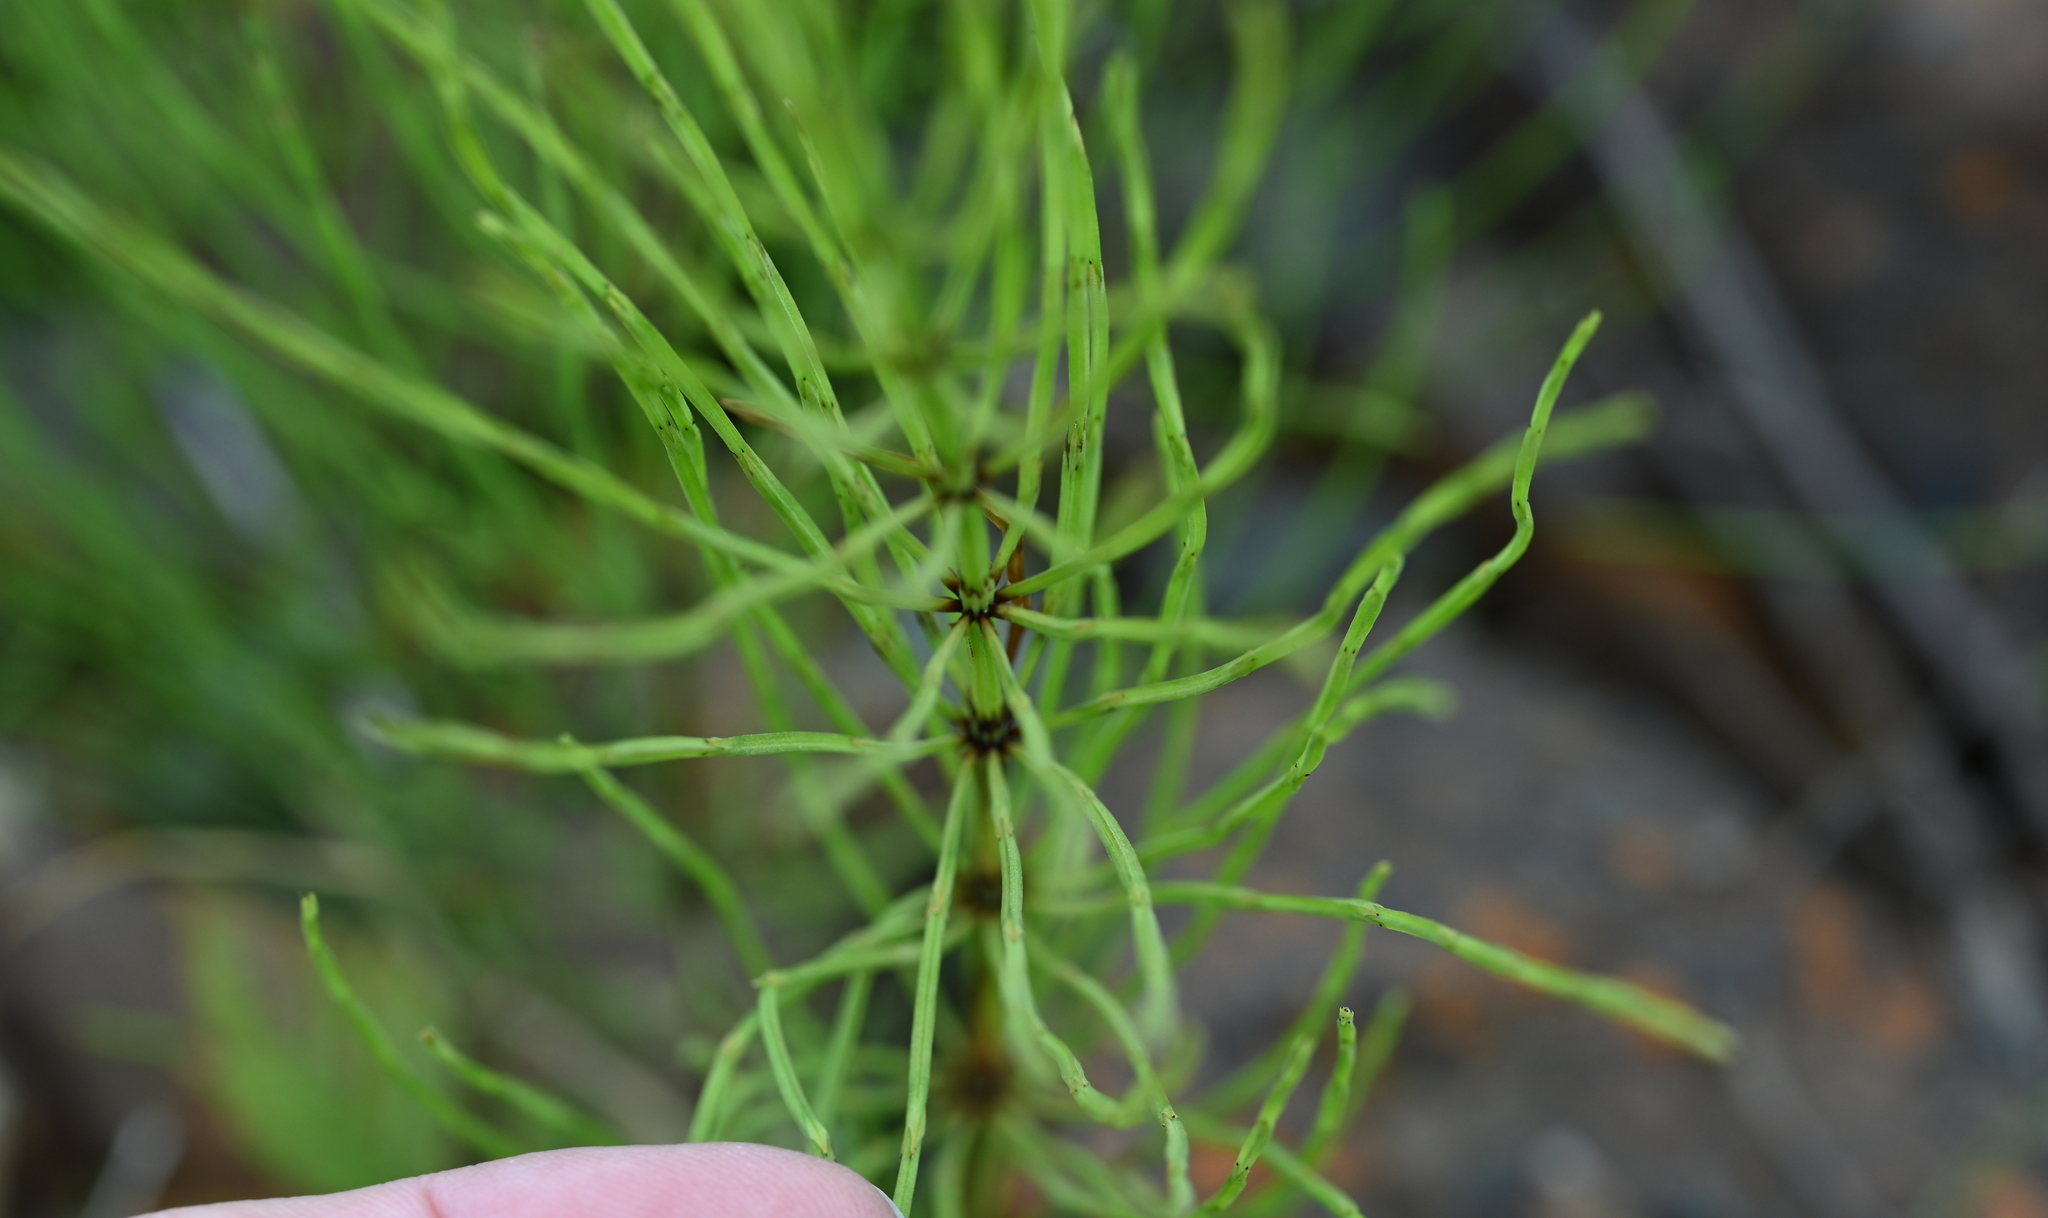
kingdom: Plantae
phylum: Tracheophyta
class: Polypodiopsida
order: Equisetales
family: Equisetaceae
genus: Equisetum
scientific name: Equisetum arvense
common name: Field horsetail
